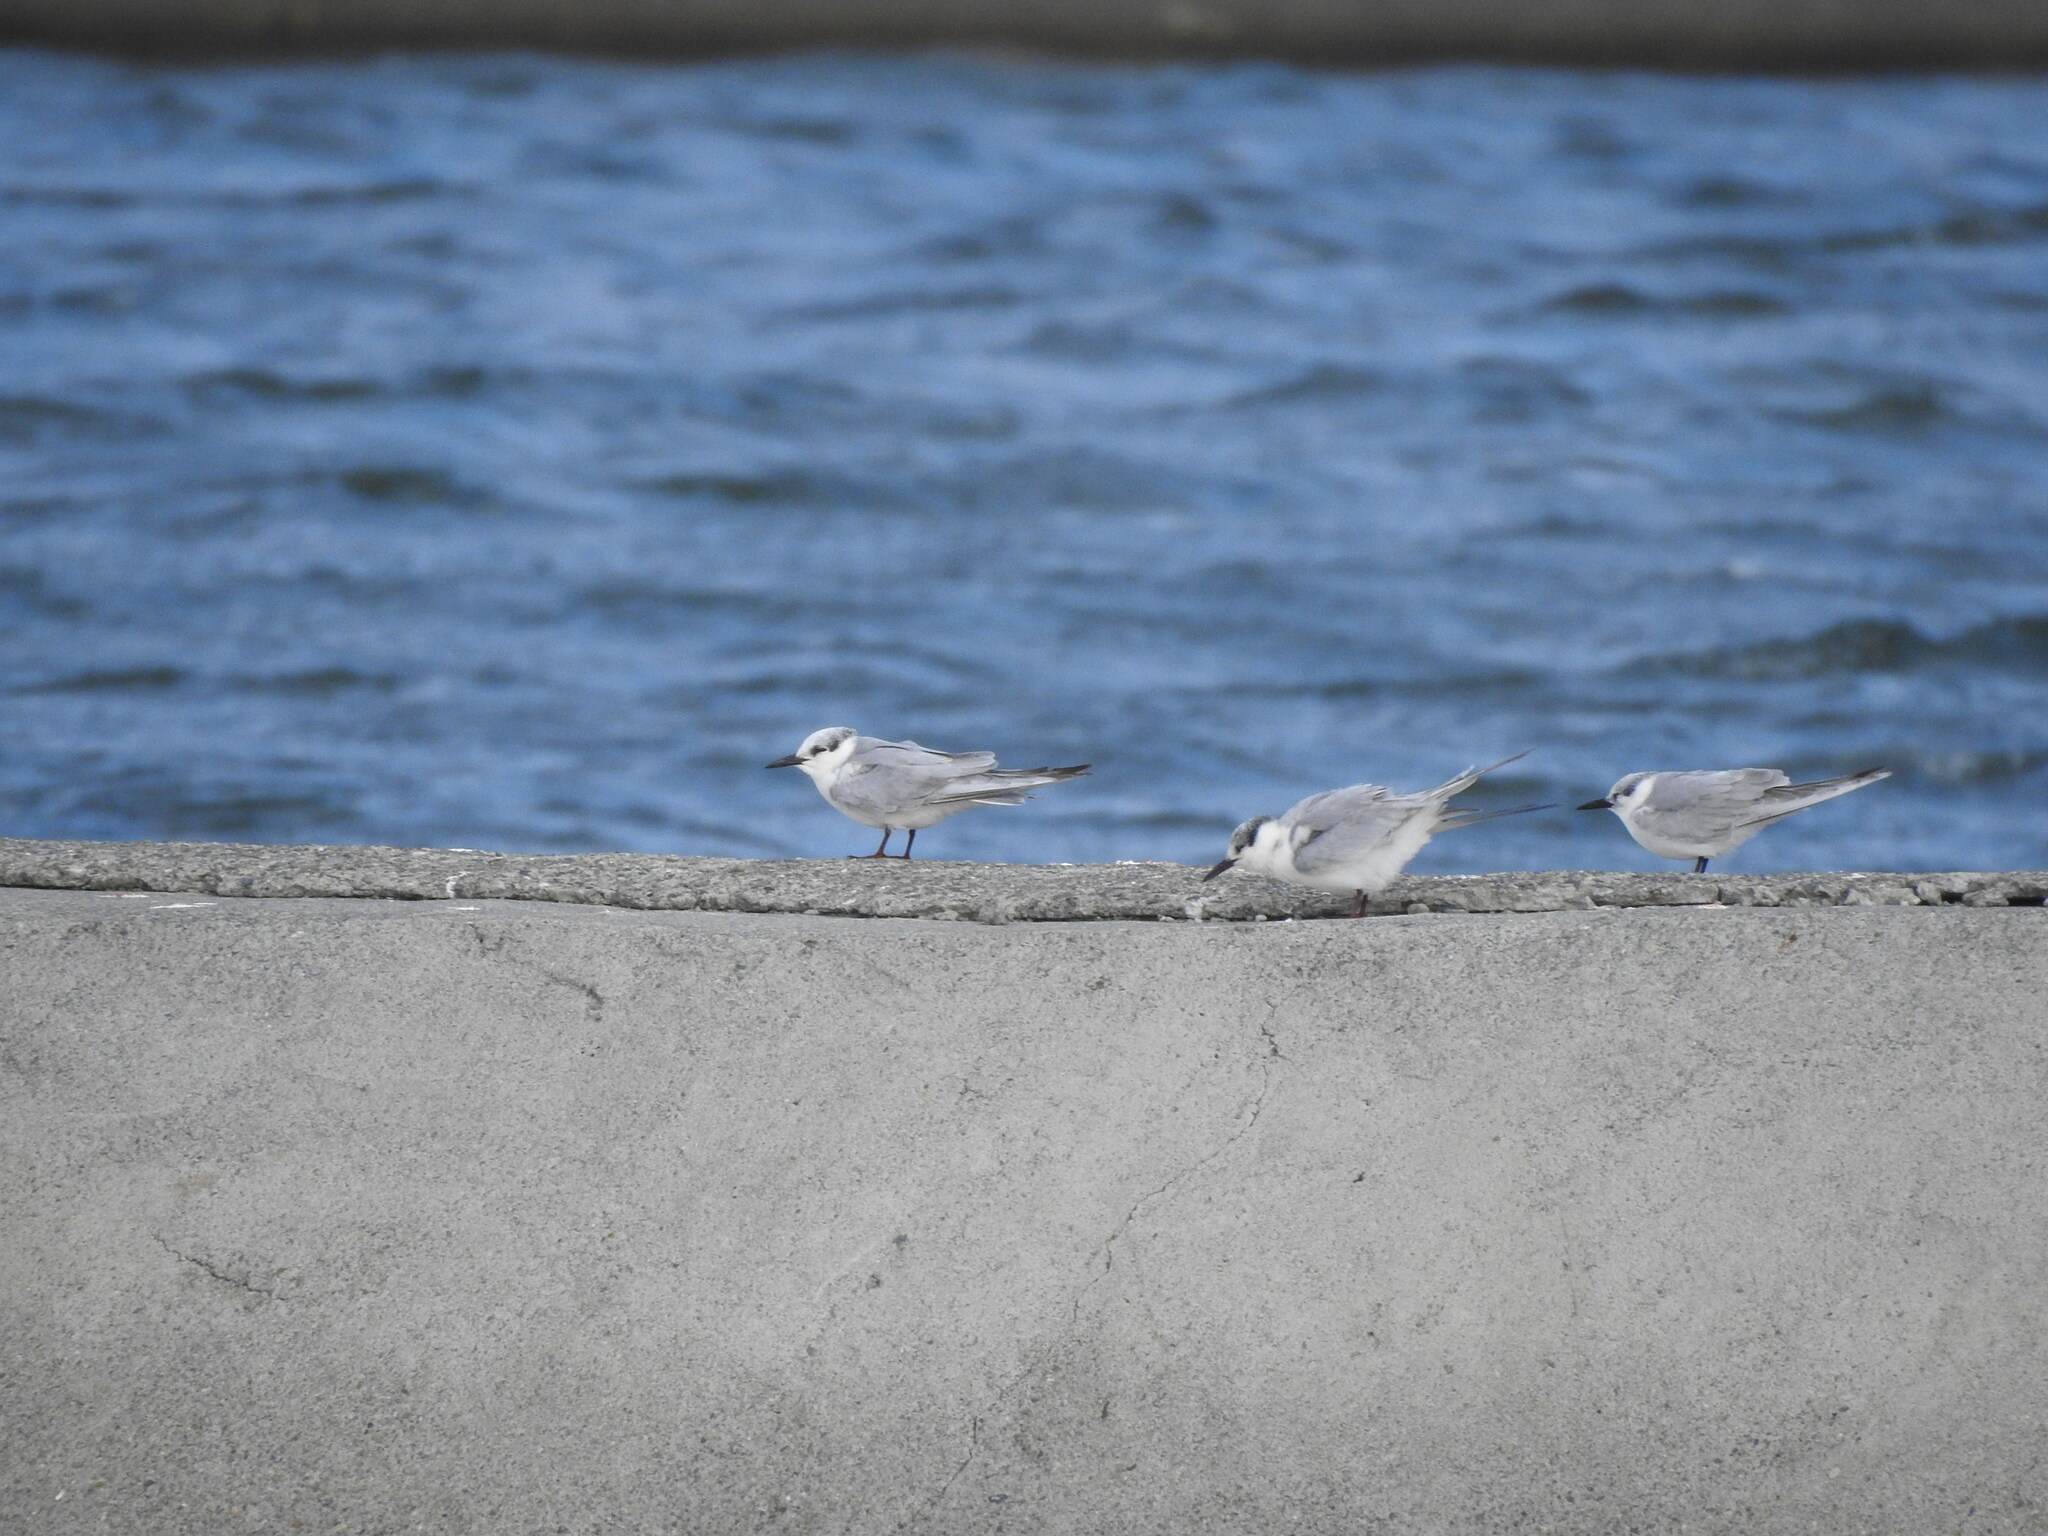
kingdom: Animalia
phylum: Chordata
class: Aves
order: Charadriiformes
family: Laridae
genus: Chlidonias
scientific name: Chlidonias hybrida
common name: Whiskered tern
